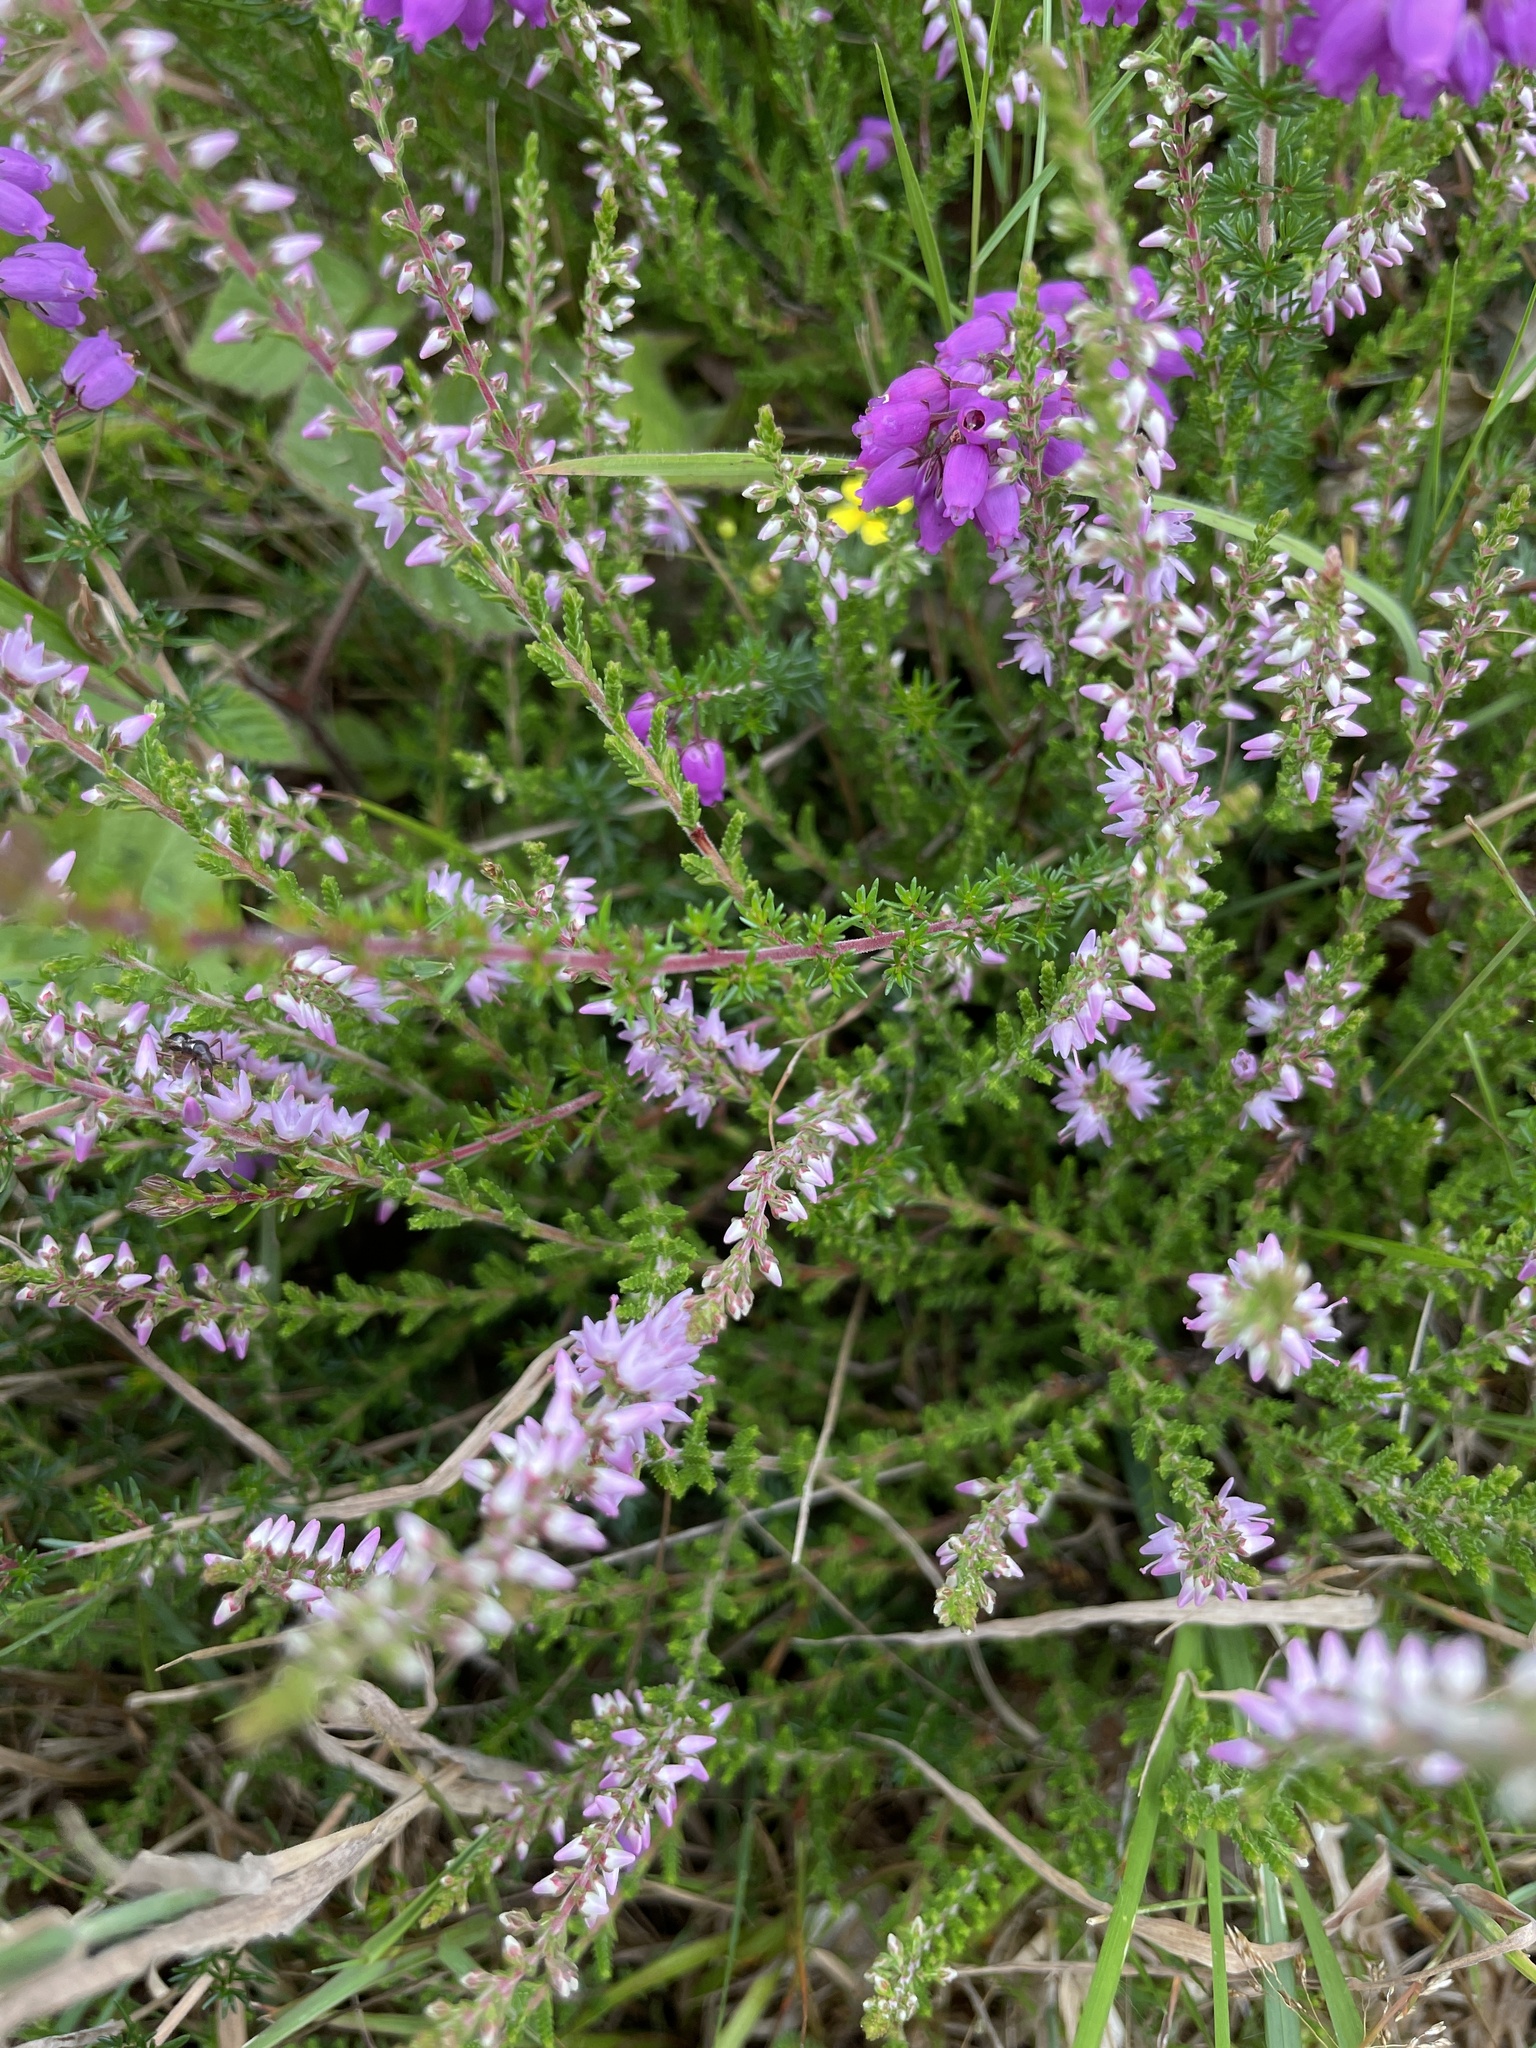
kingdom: Plantae
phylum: Tracheophyta
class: Magnoliopsida
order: Ericales
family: Ericaceae
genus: Calluna
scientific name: Calluna vulgaris
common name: Heather
